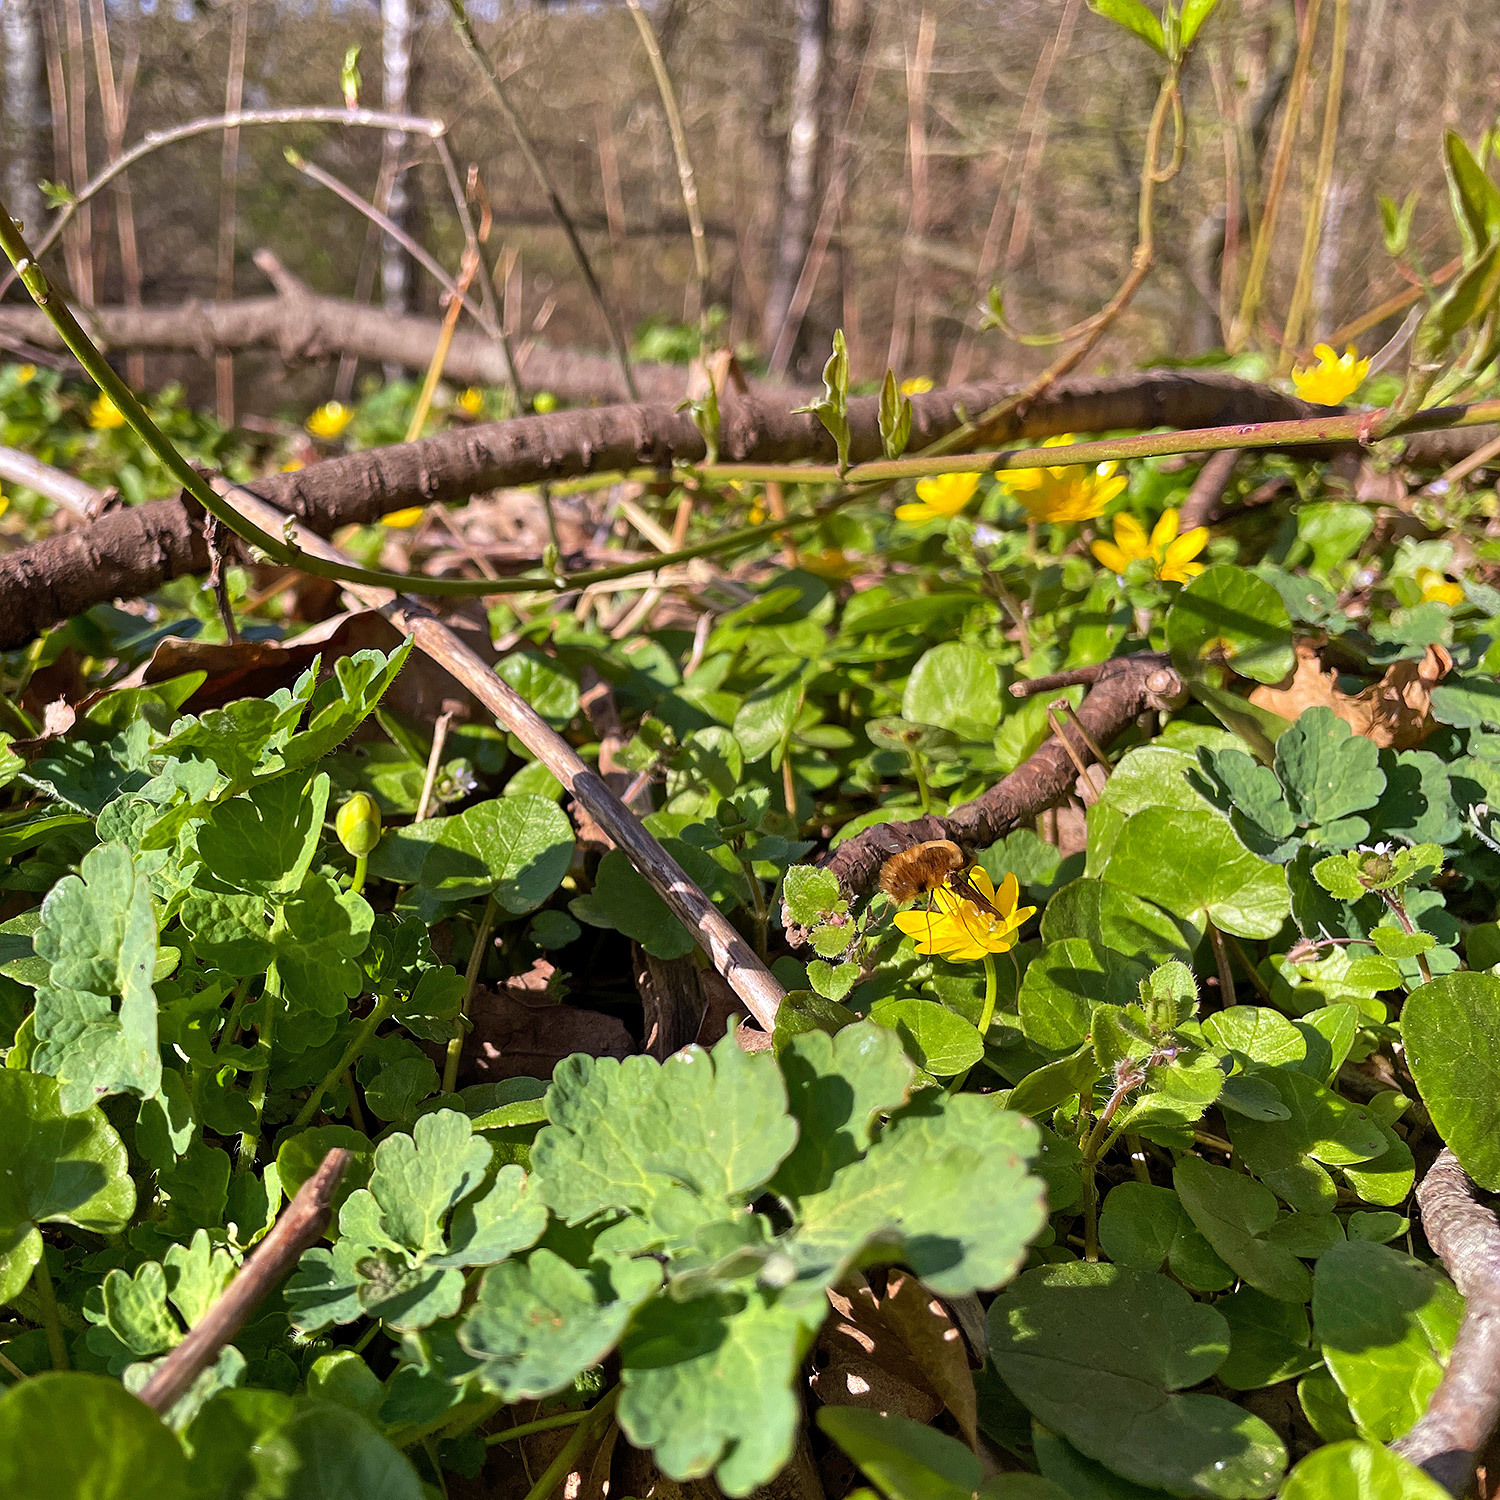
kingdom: Animalia
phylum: Arthropoda
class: Insecta
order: Diptera
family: Bombyliidae
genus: Bombylius
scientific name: Bombylius major
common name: Bee fly
